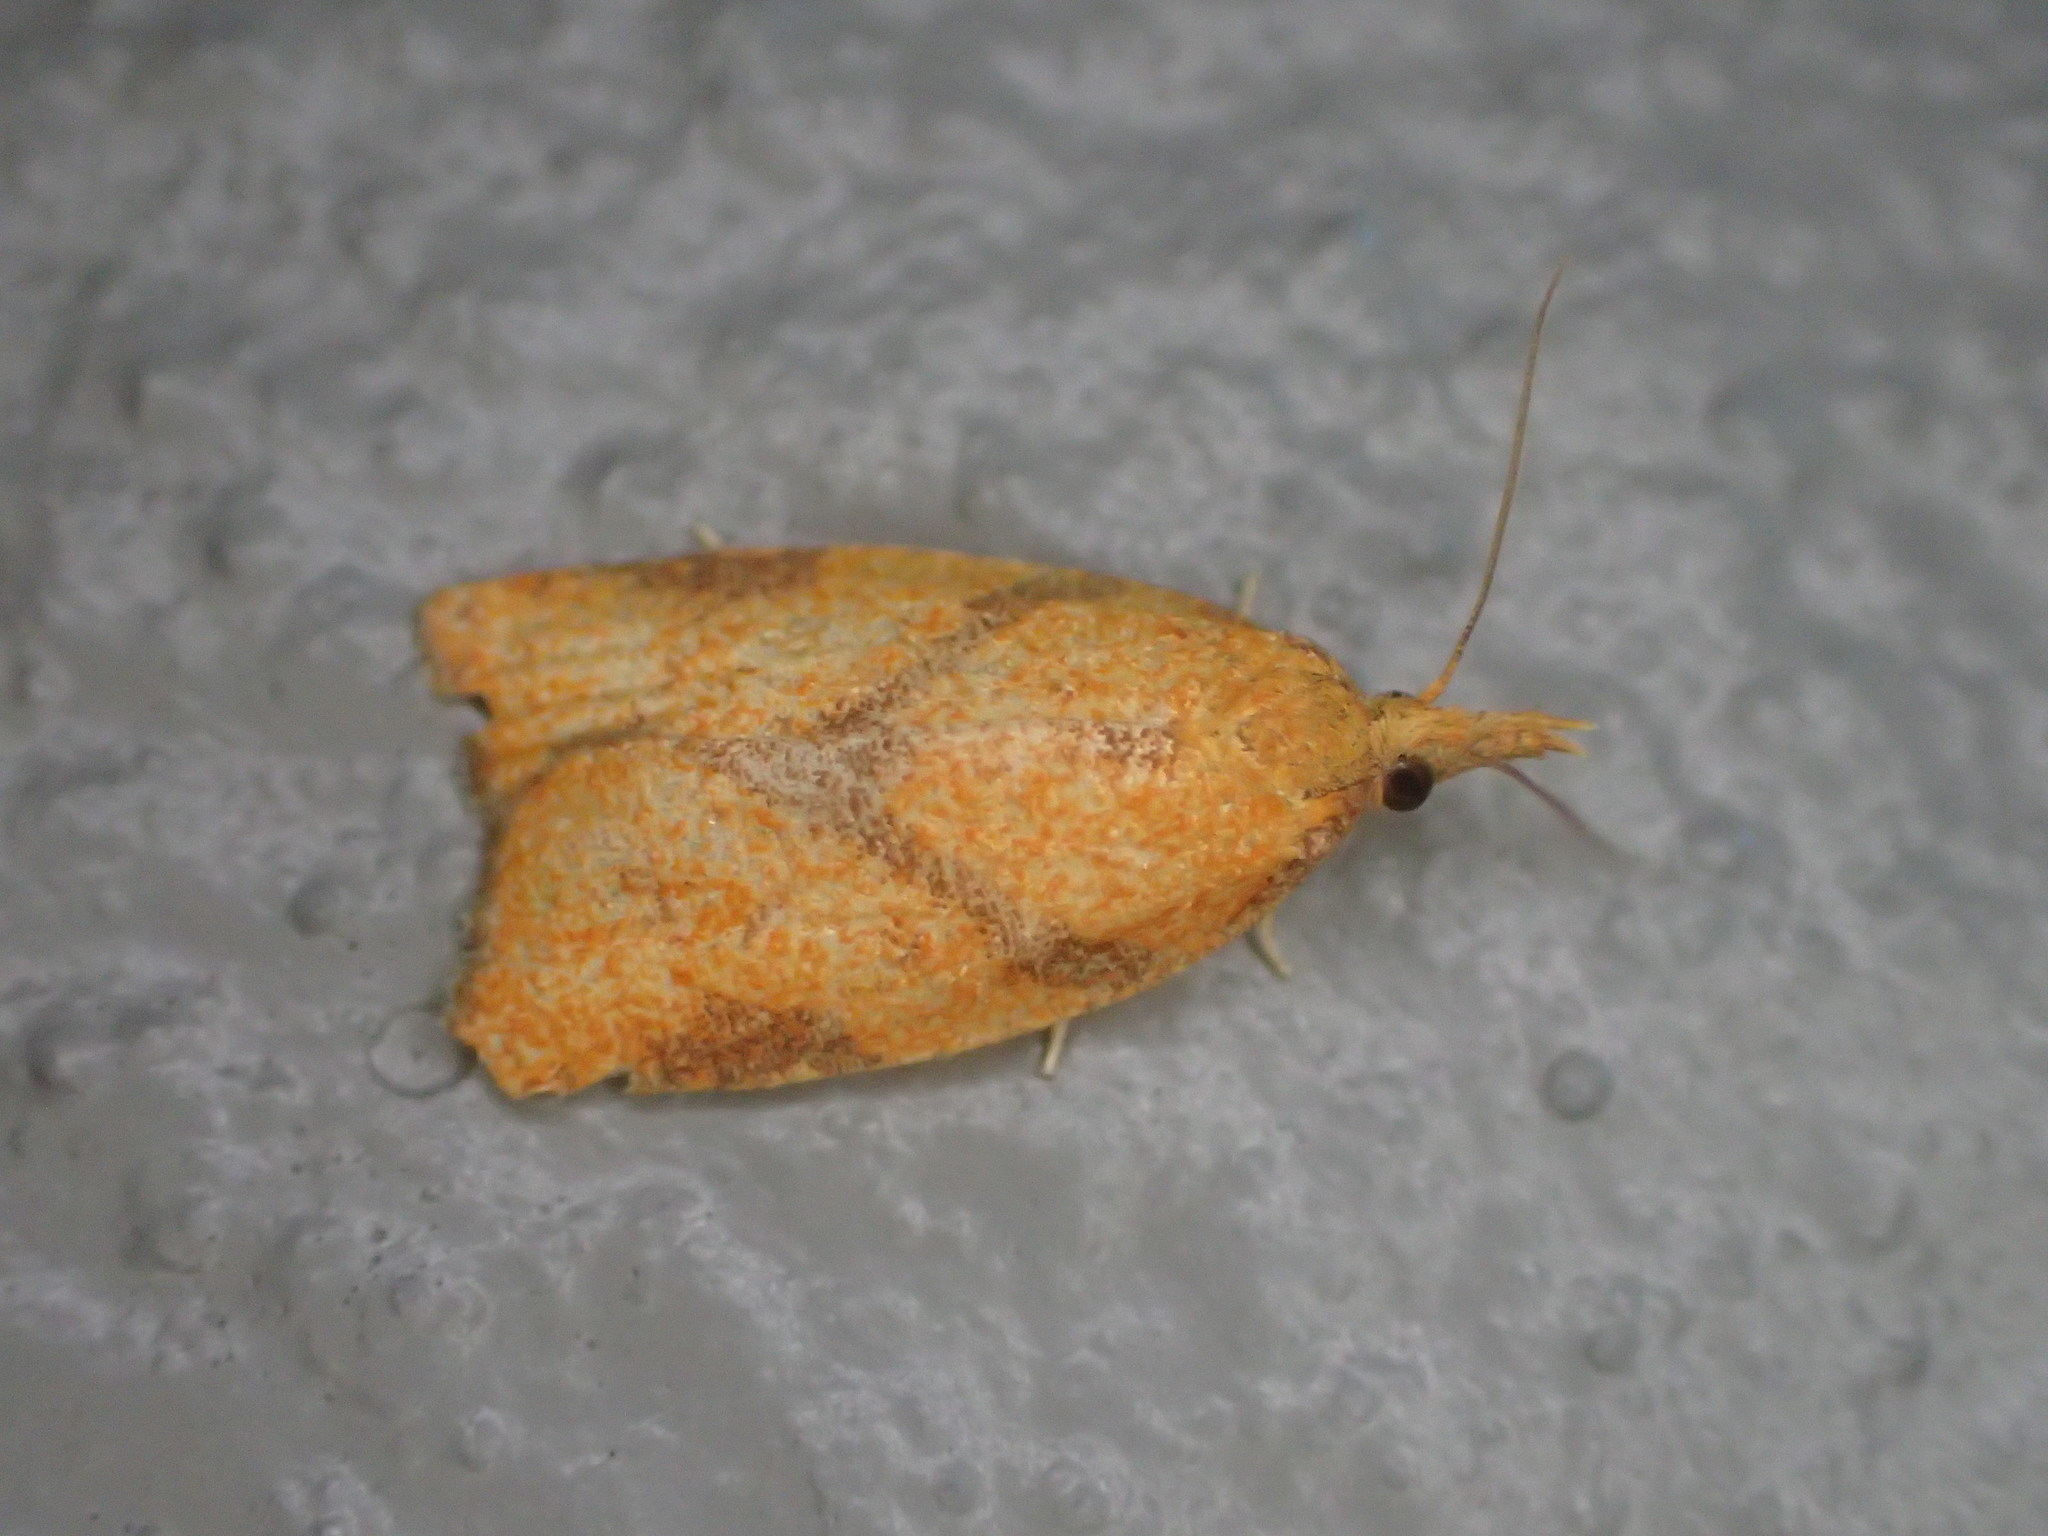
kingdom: Animalia
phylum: Arthropoda
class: Insecta
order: Lepidoptera
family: Tortricidae
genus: Cenopis
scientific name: Cenopis reticulatana
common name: Reticulated fruitworm moth
